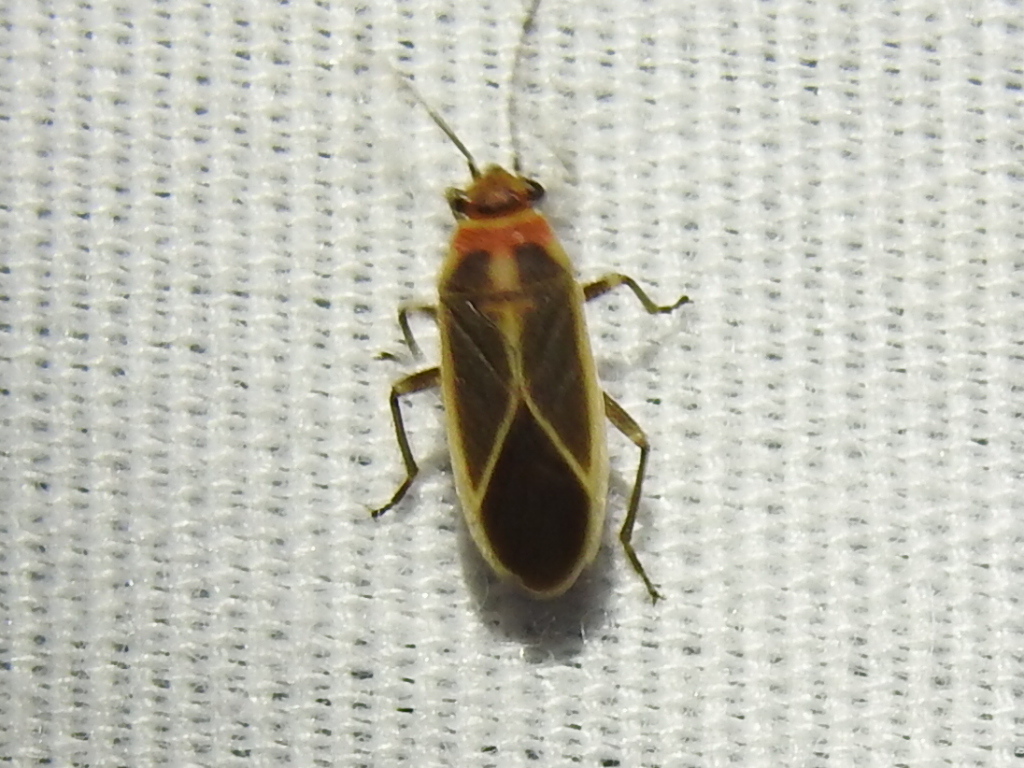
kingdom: Animalia
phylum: Arthropoda
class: Insecta
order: Hemiptera
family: Lygaeidae
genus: Ochrimnus
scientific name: Ochrimnus mimulus
